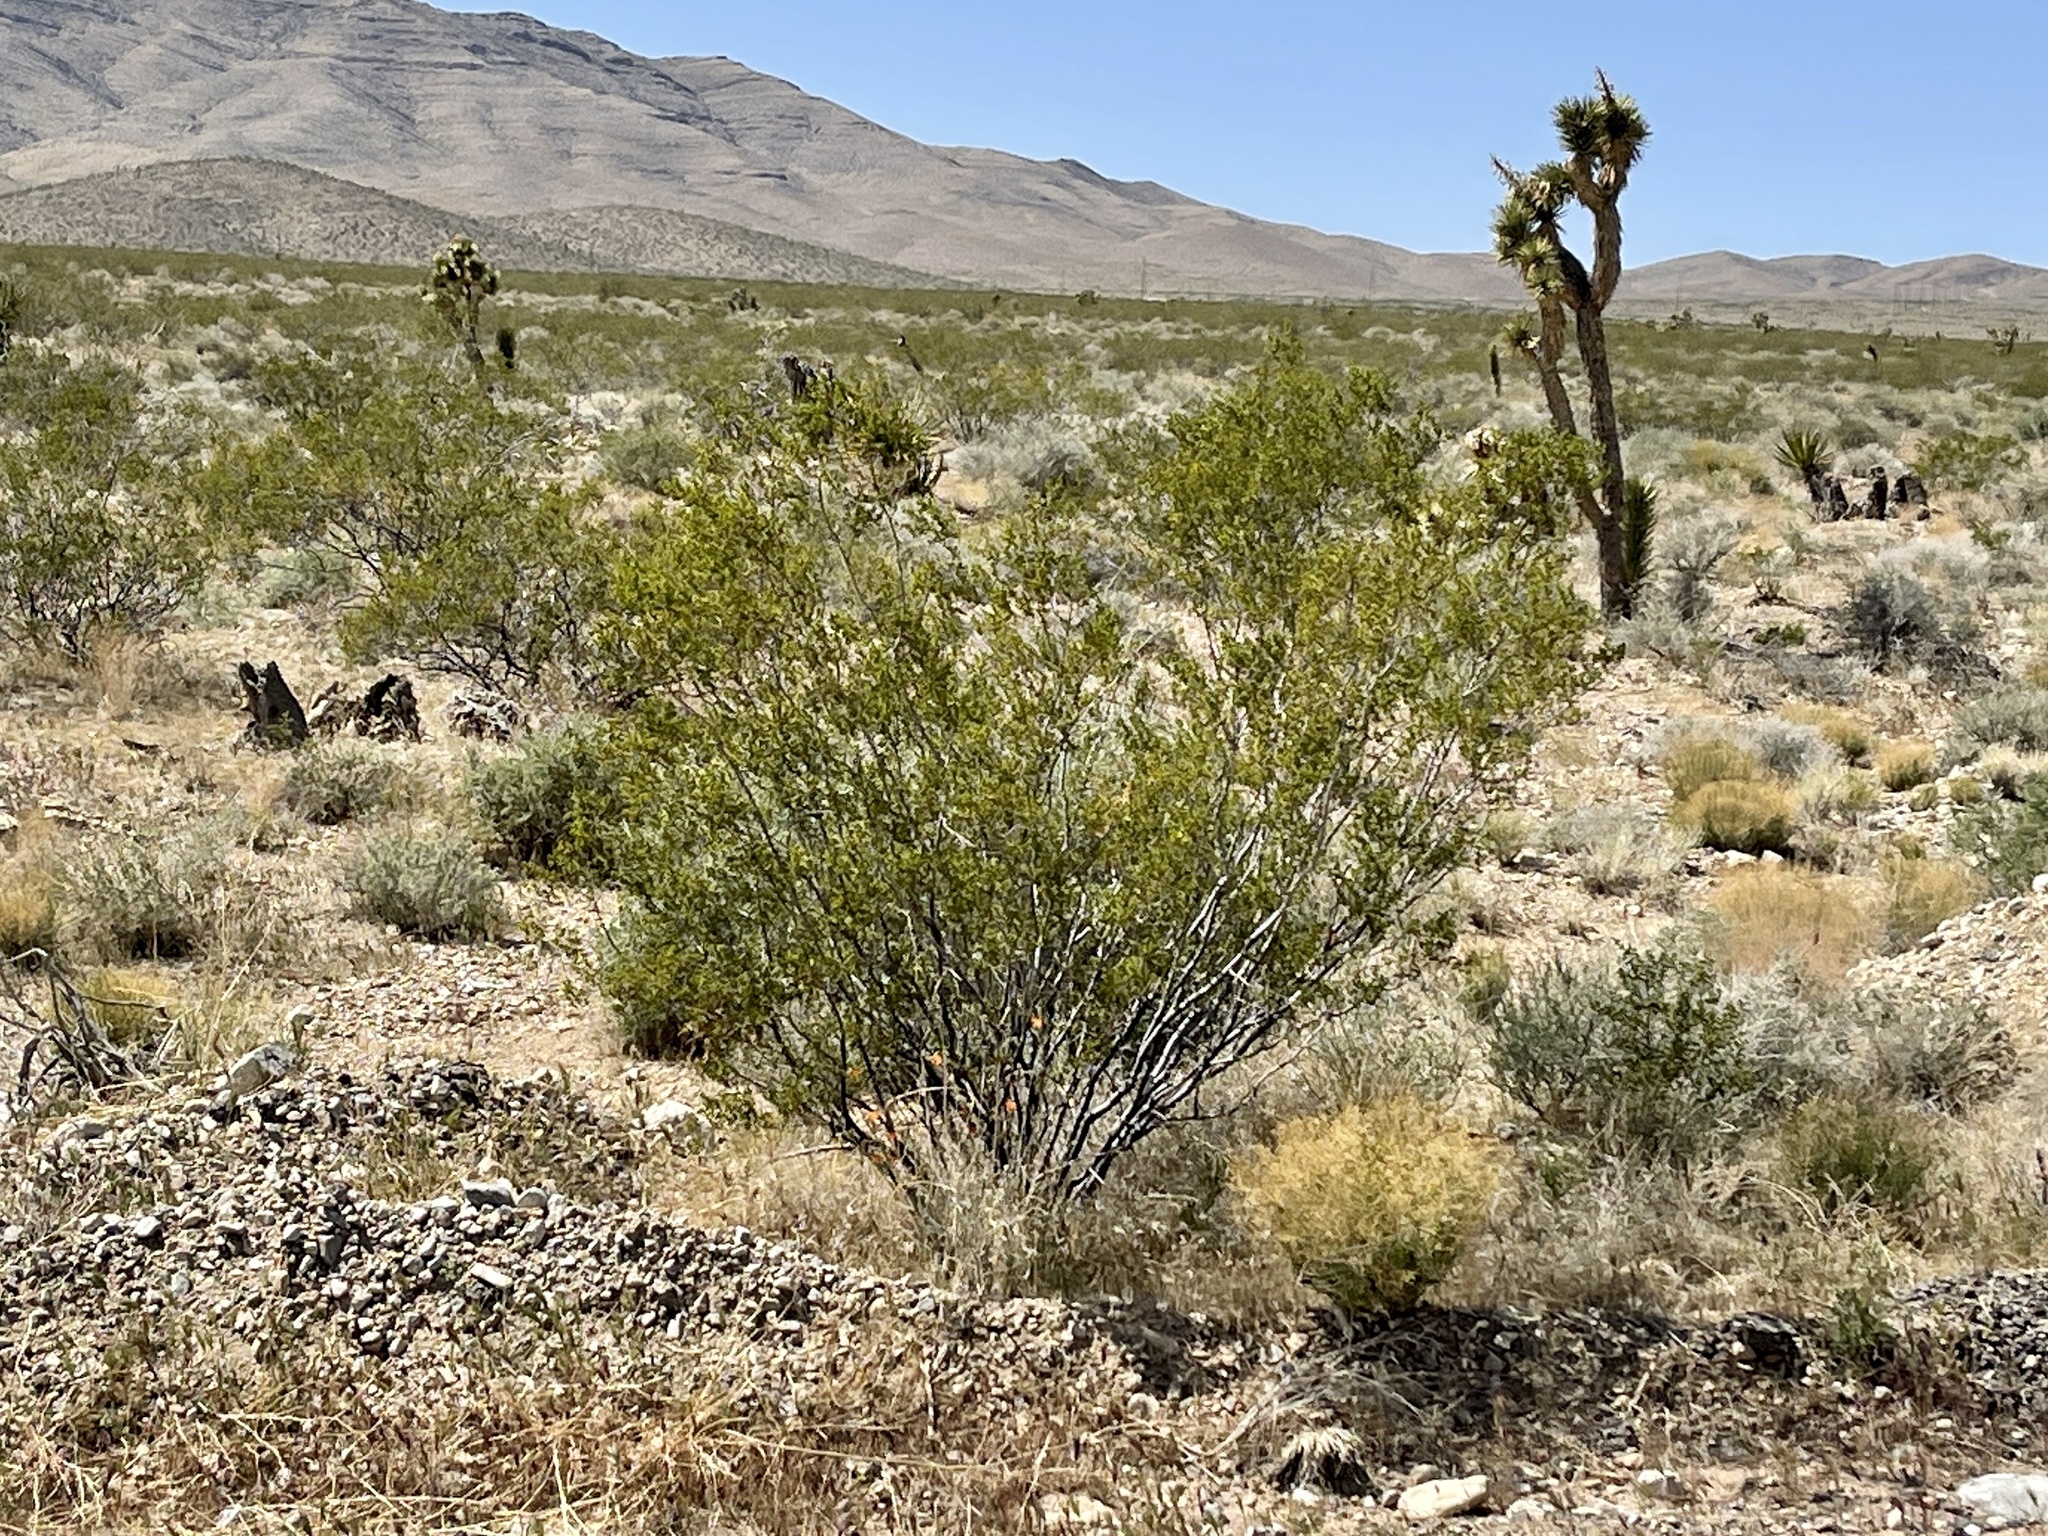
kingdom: Plantae
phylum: Tracheophyta
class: Magnoliopsida
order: Zygophyllales
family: Zygophyllaceae
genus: Larrea
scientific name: Larrea tridentata
